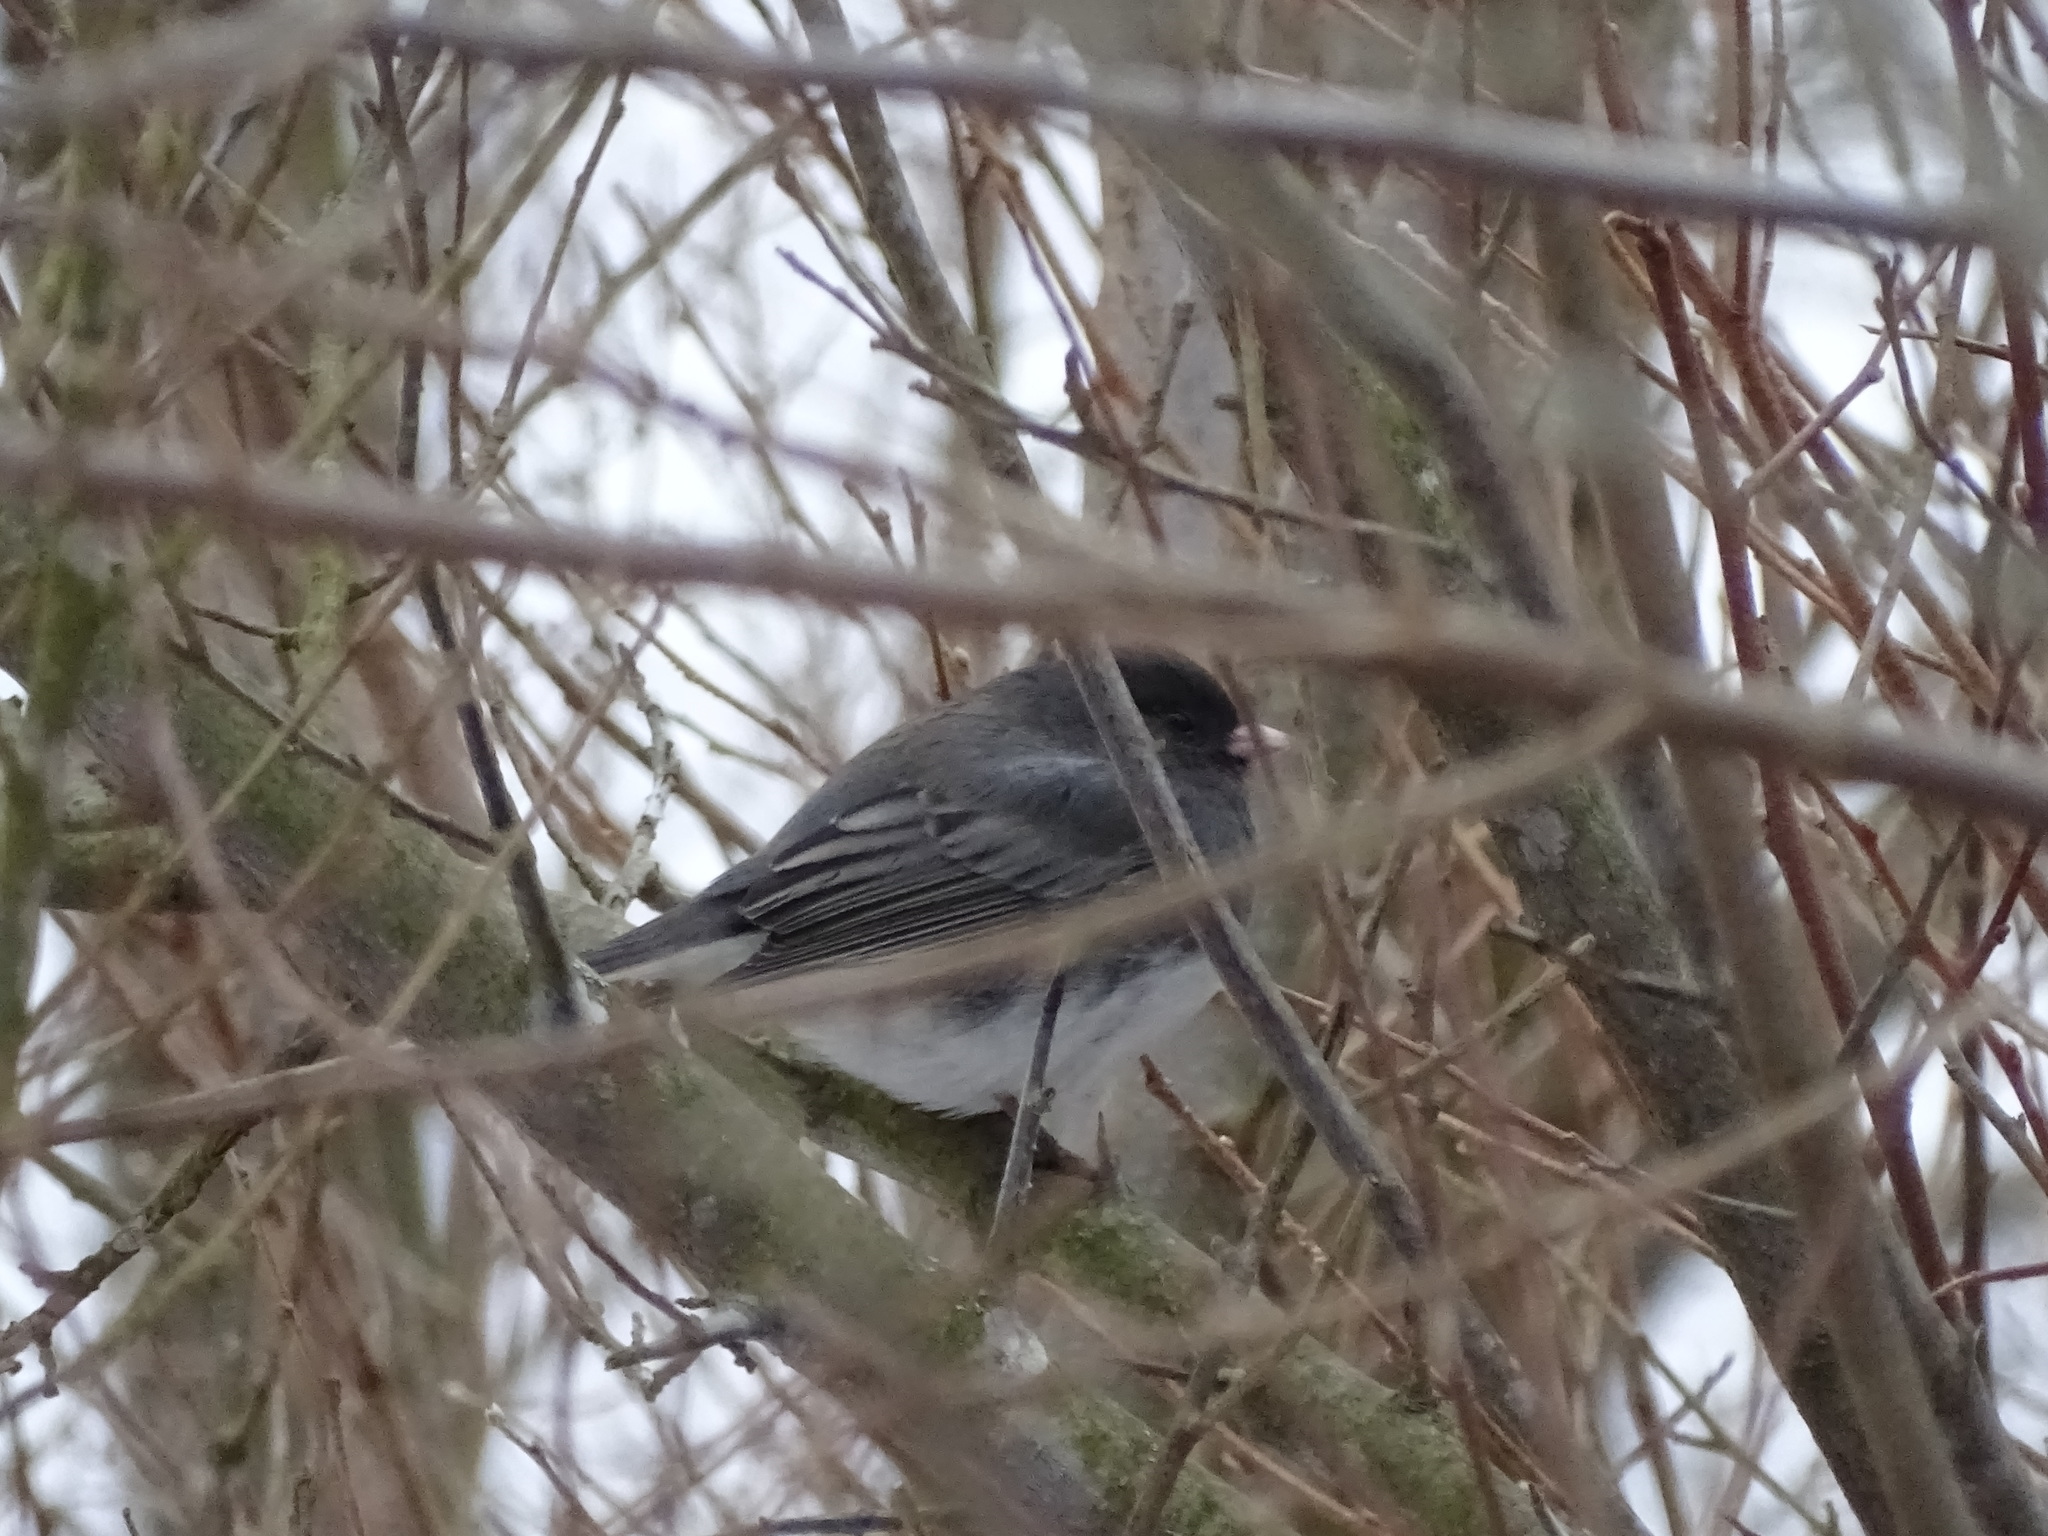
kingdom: Animalia
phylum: Chordata
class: Aves
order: Passeriformes
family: Passerellidae
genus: Junco
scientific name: Junco hyemalis
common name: Dark-eyed junco
